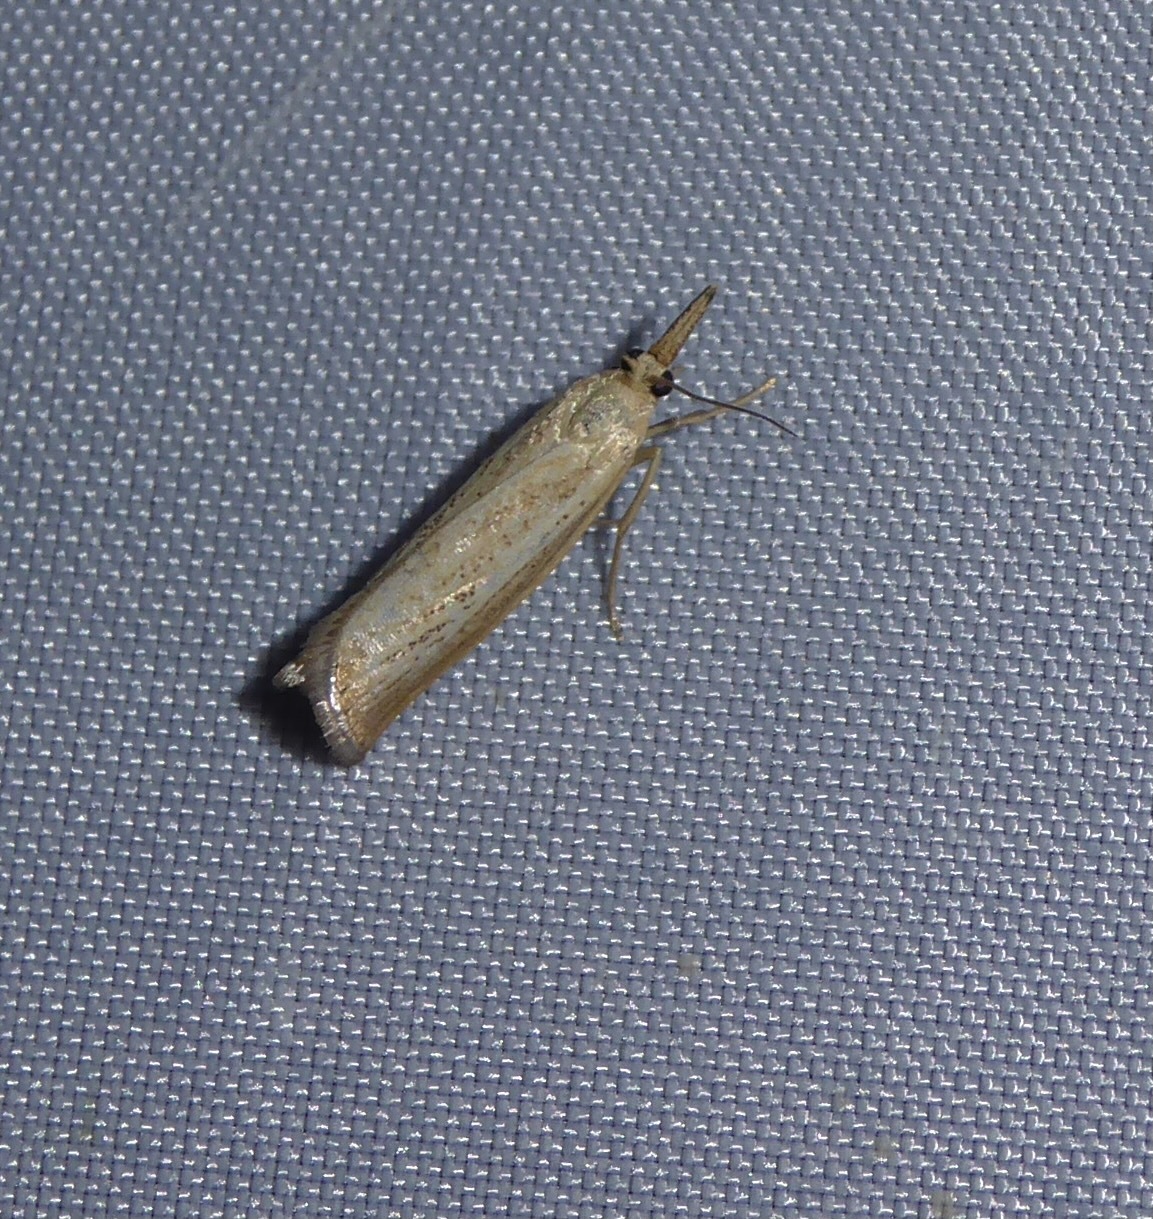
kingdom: Animalia
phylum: Arthropoda
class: Insecta
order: Lepidoptera
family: Crambidae
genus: Agriphila
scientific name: Agriphila straminella
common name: Straw grass-veneer
